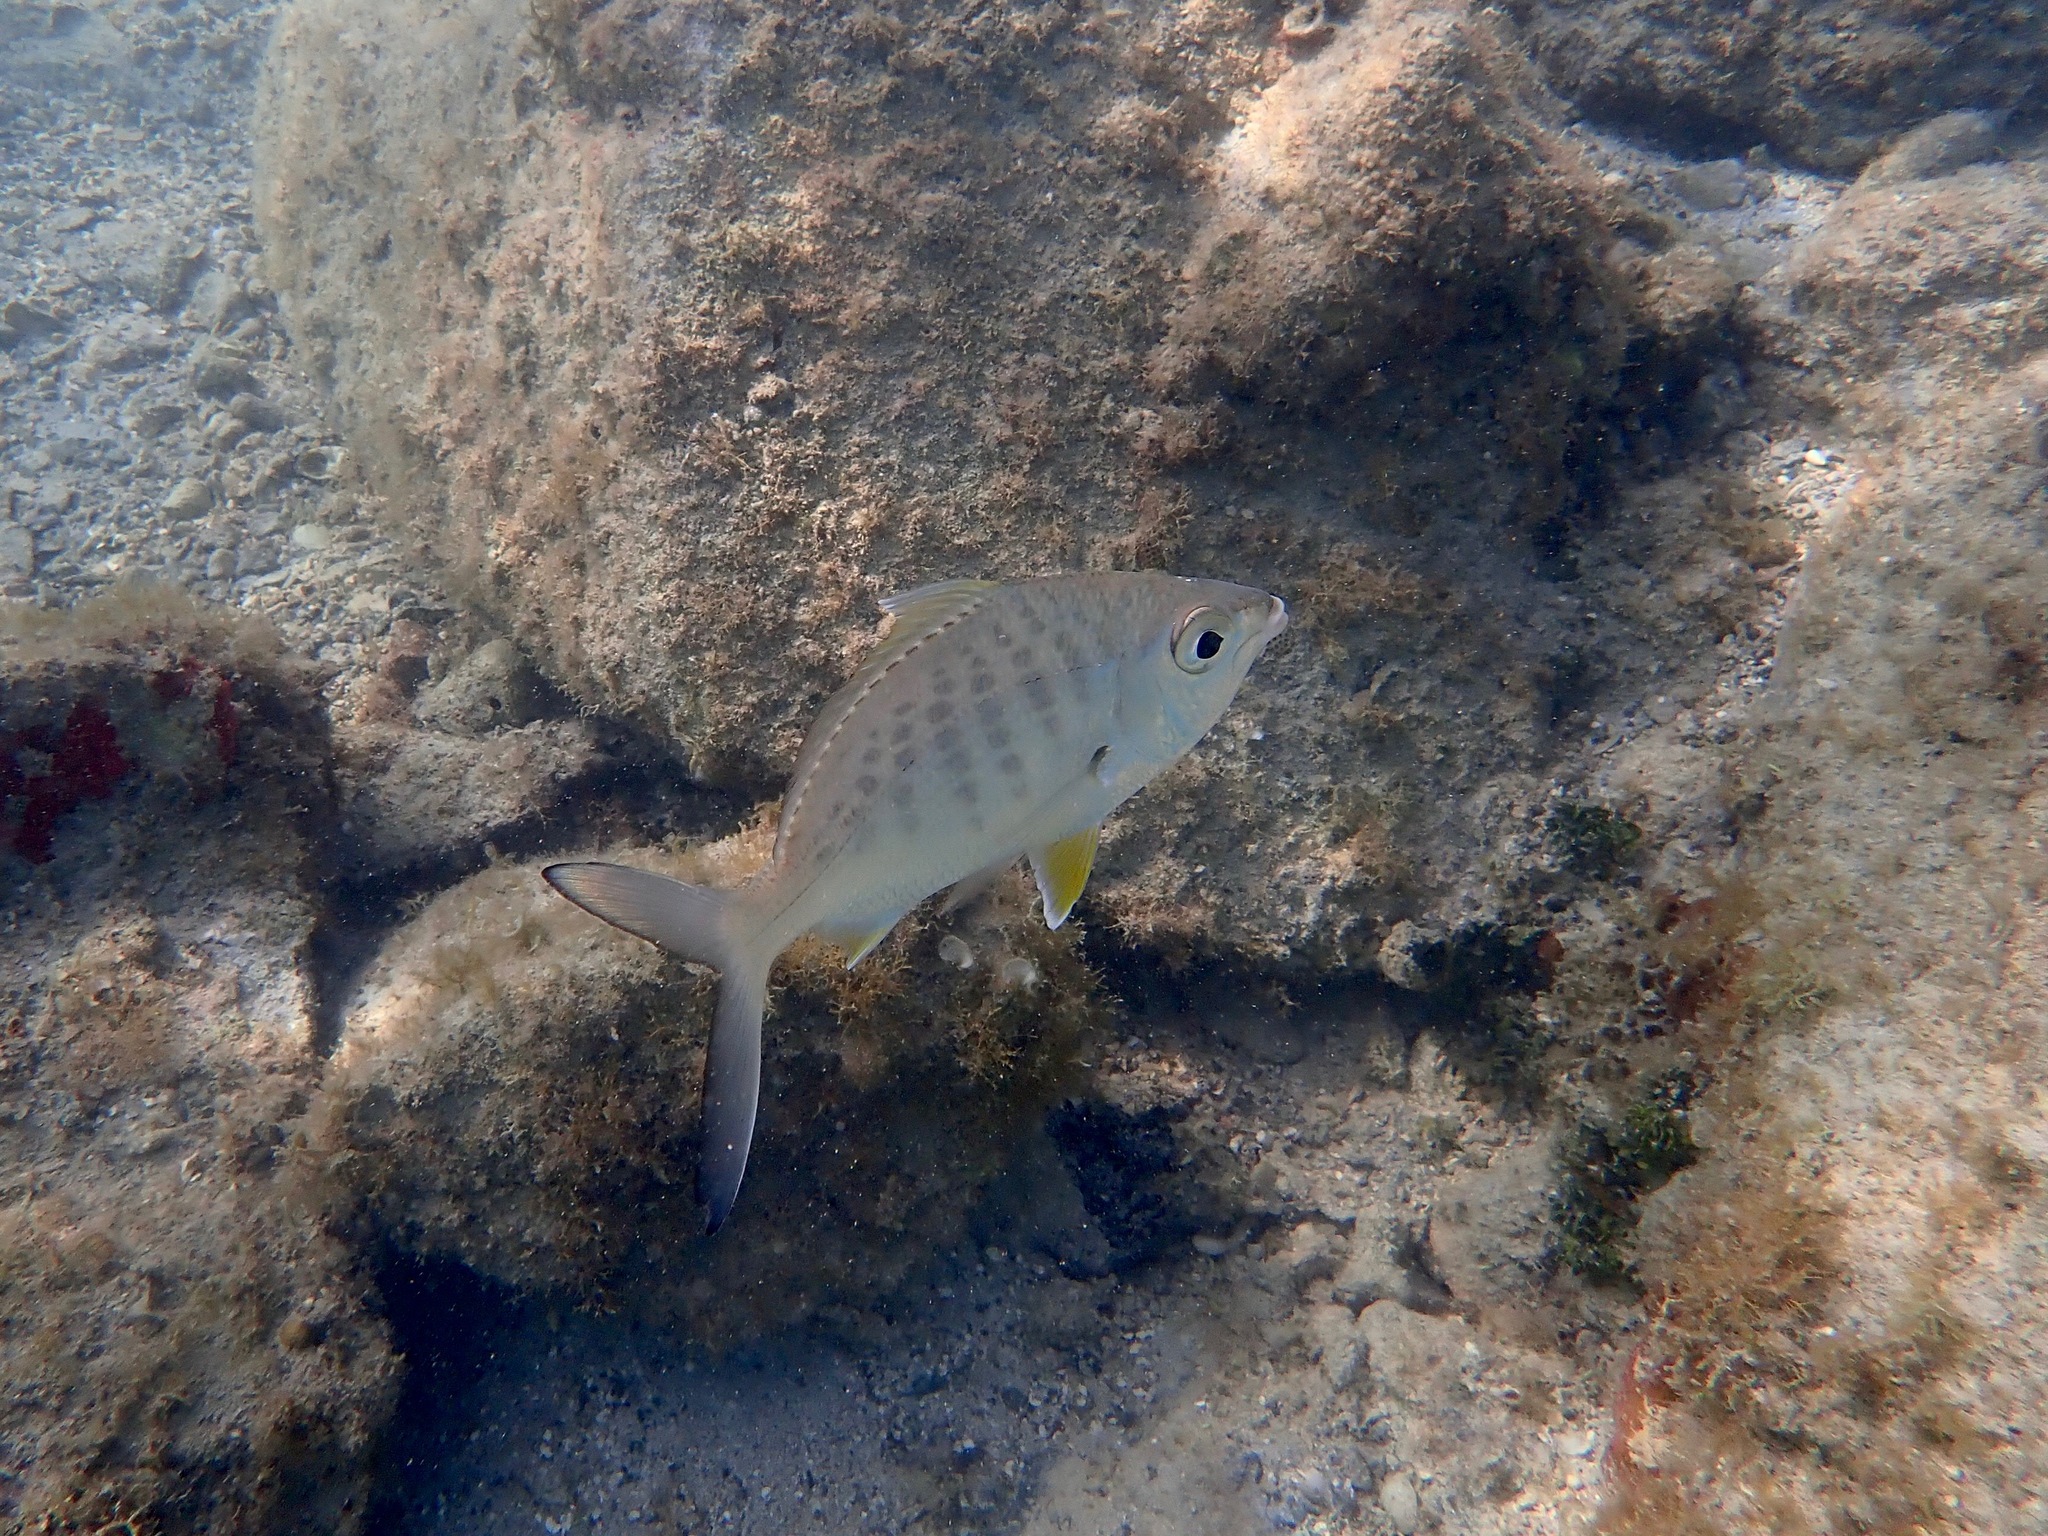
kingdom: Animalia
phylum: Chordata
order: Perciformes
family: Gerreidae
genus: Gerres
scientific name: Gerres cinereus
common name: Hedow
